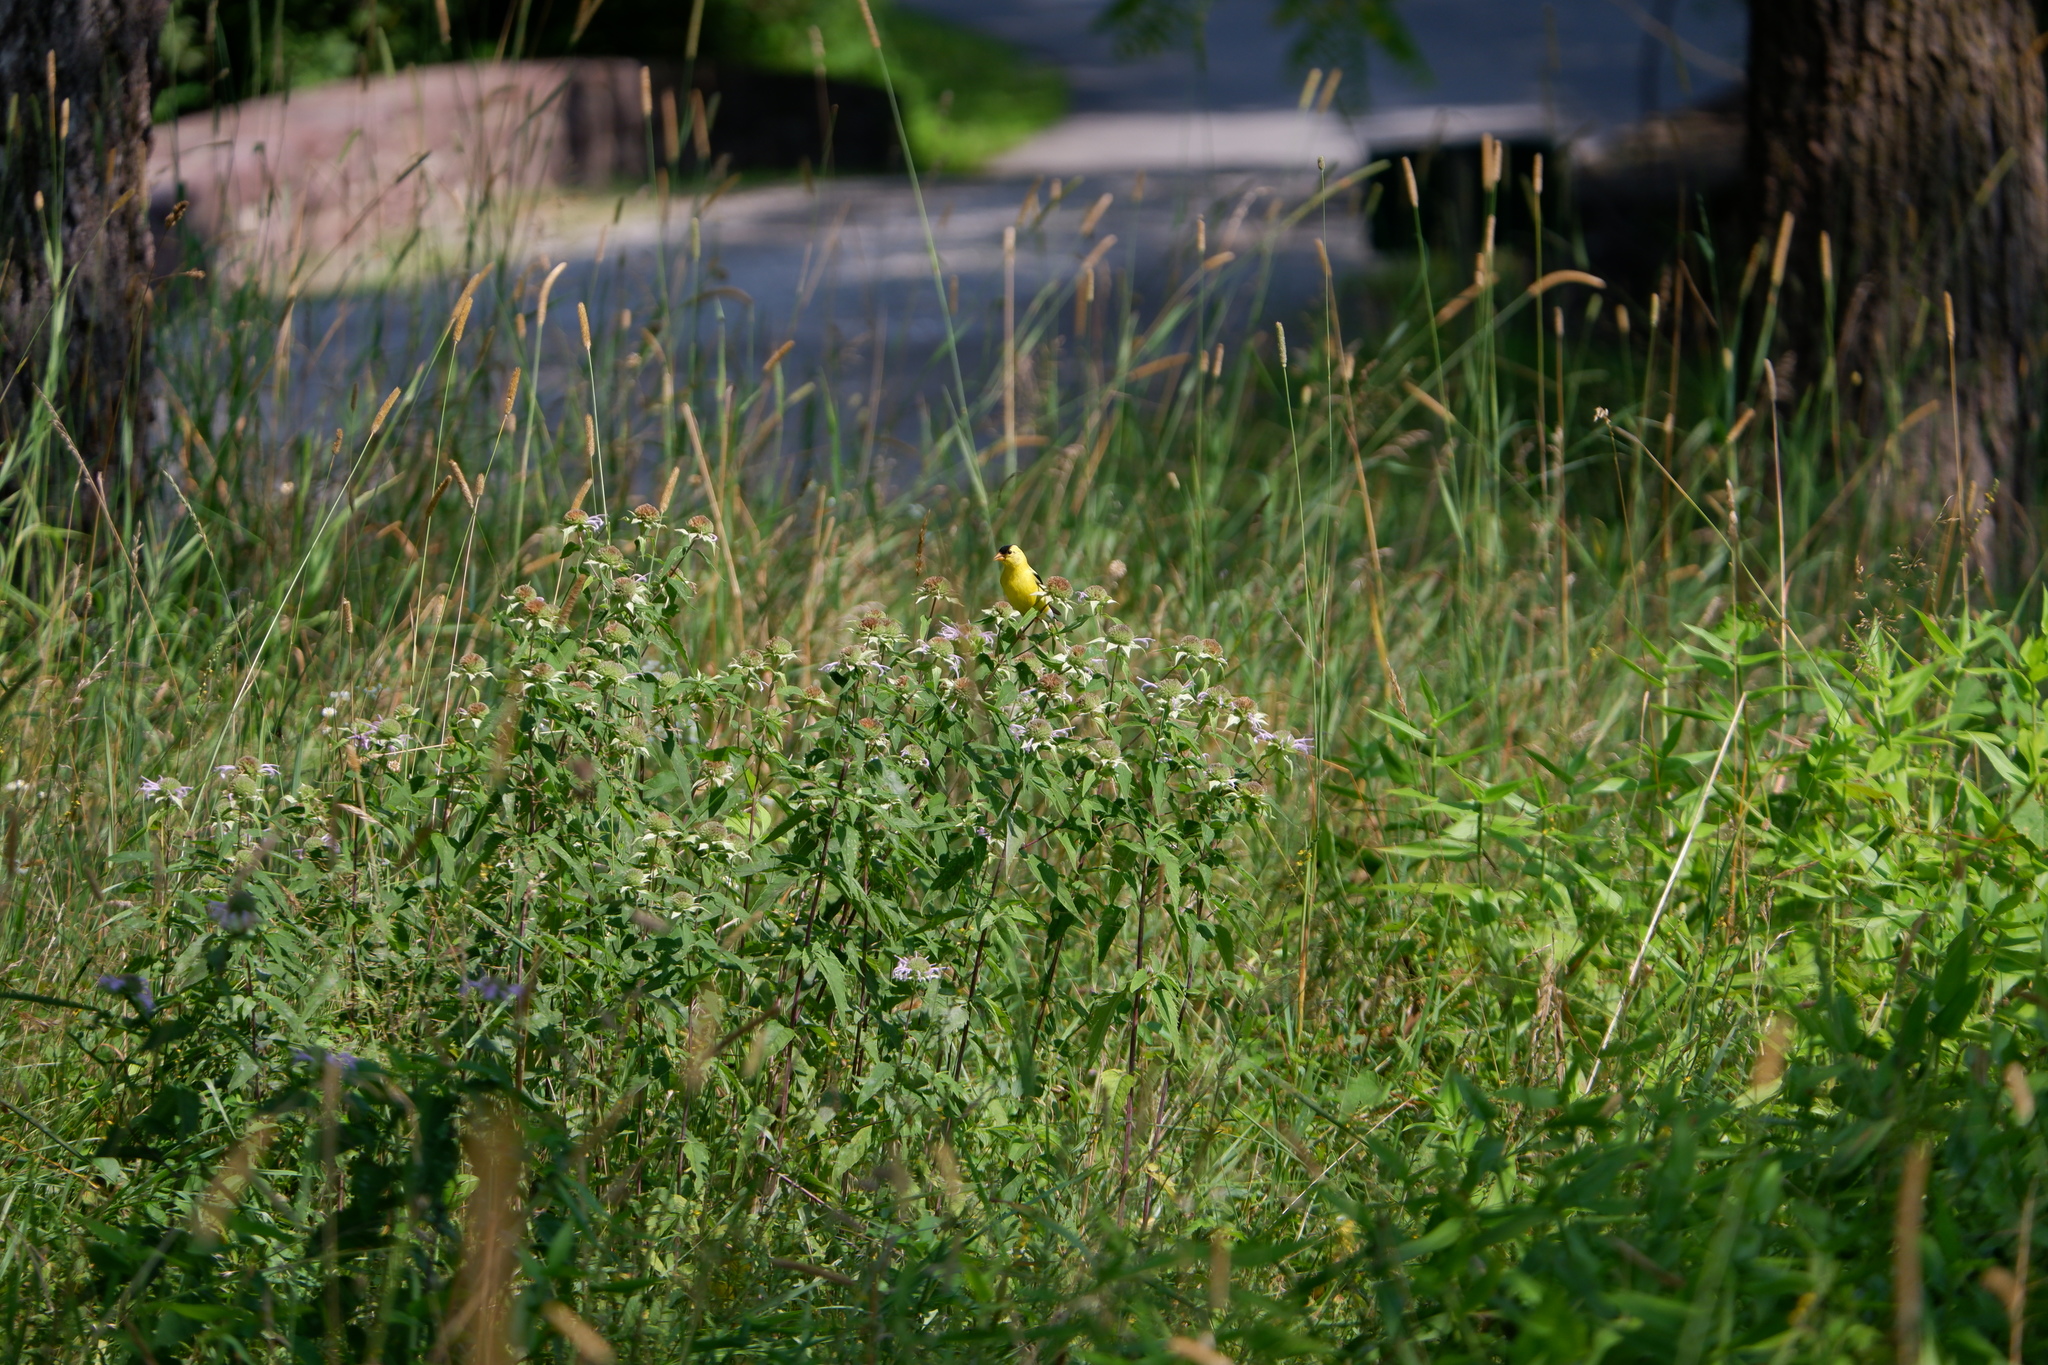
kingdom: Animalia
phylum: Chordata
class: Aves
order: Passeriformes
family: Fringillidae
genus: Spinus
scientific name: Spinus tristis
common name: American goldfinch
